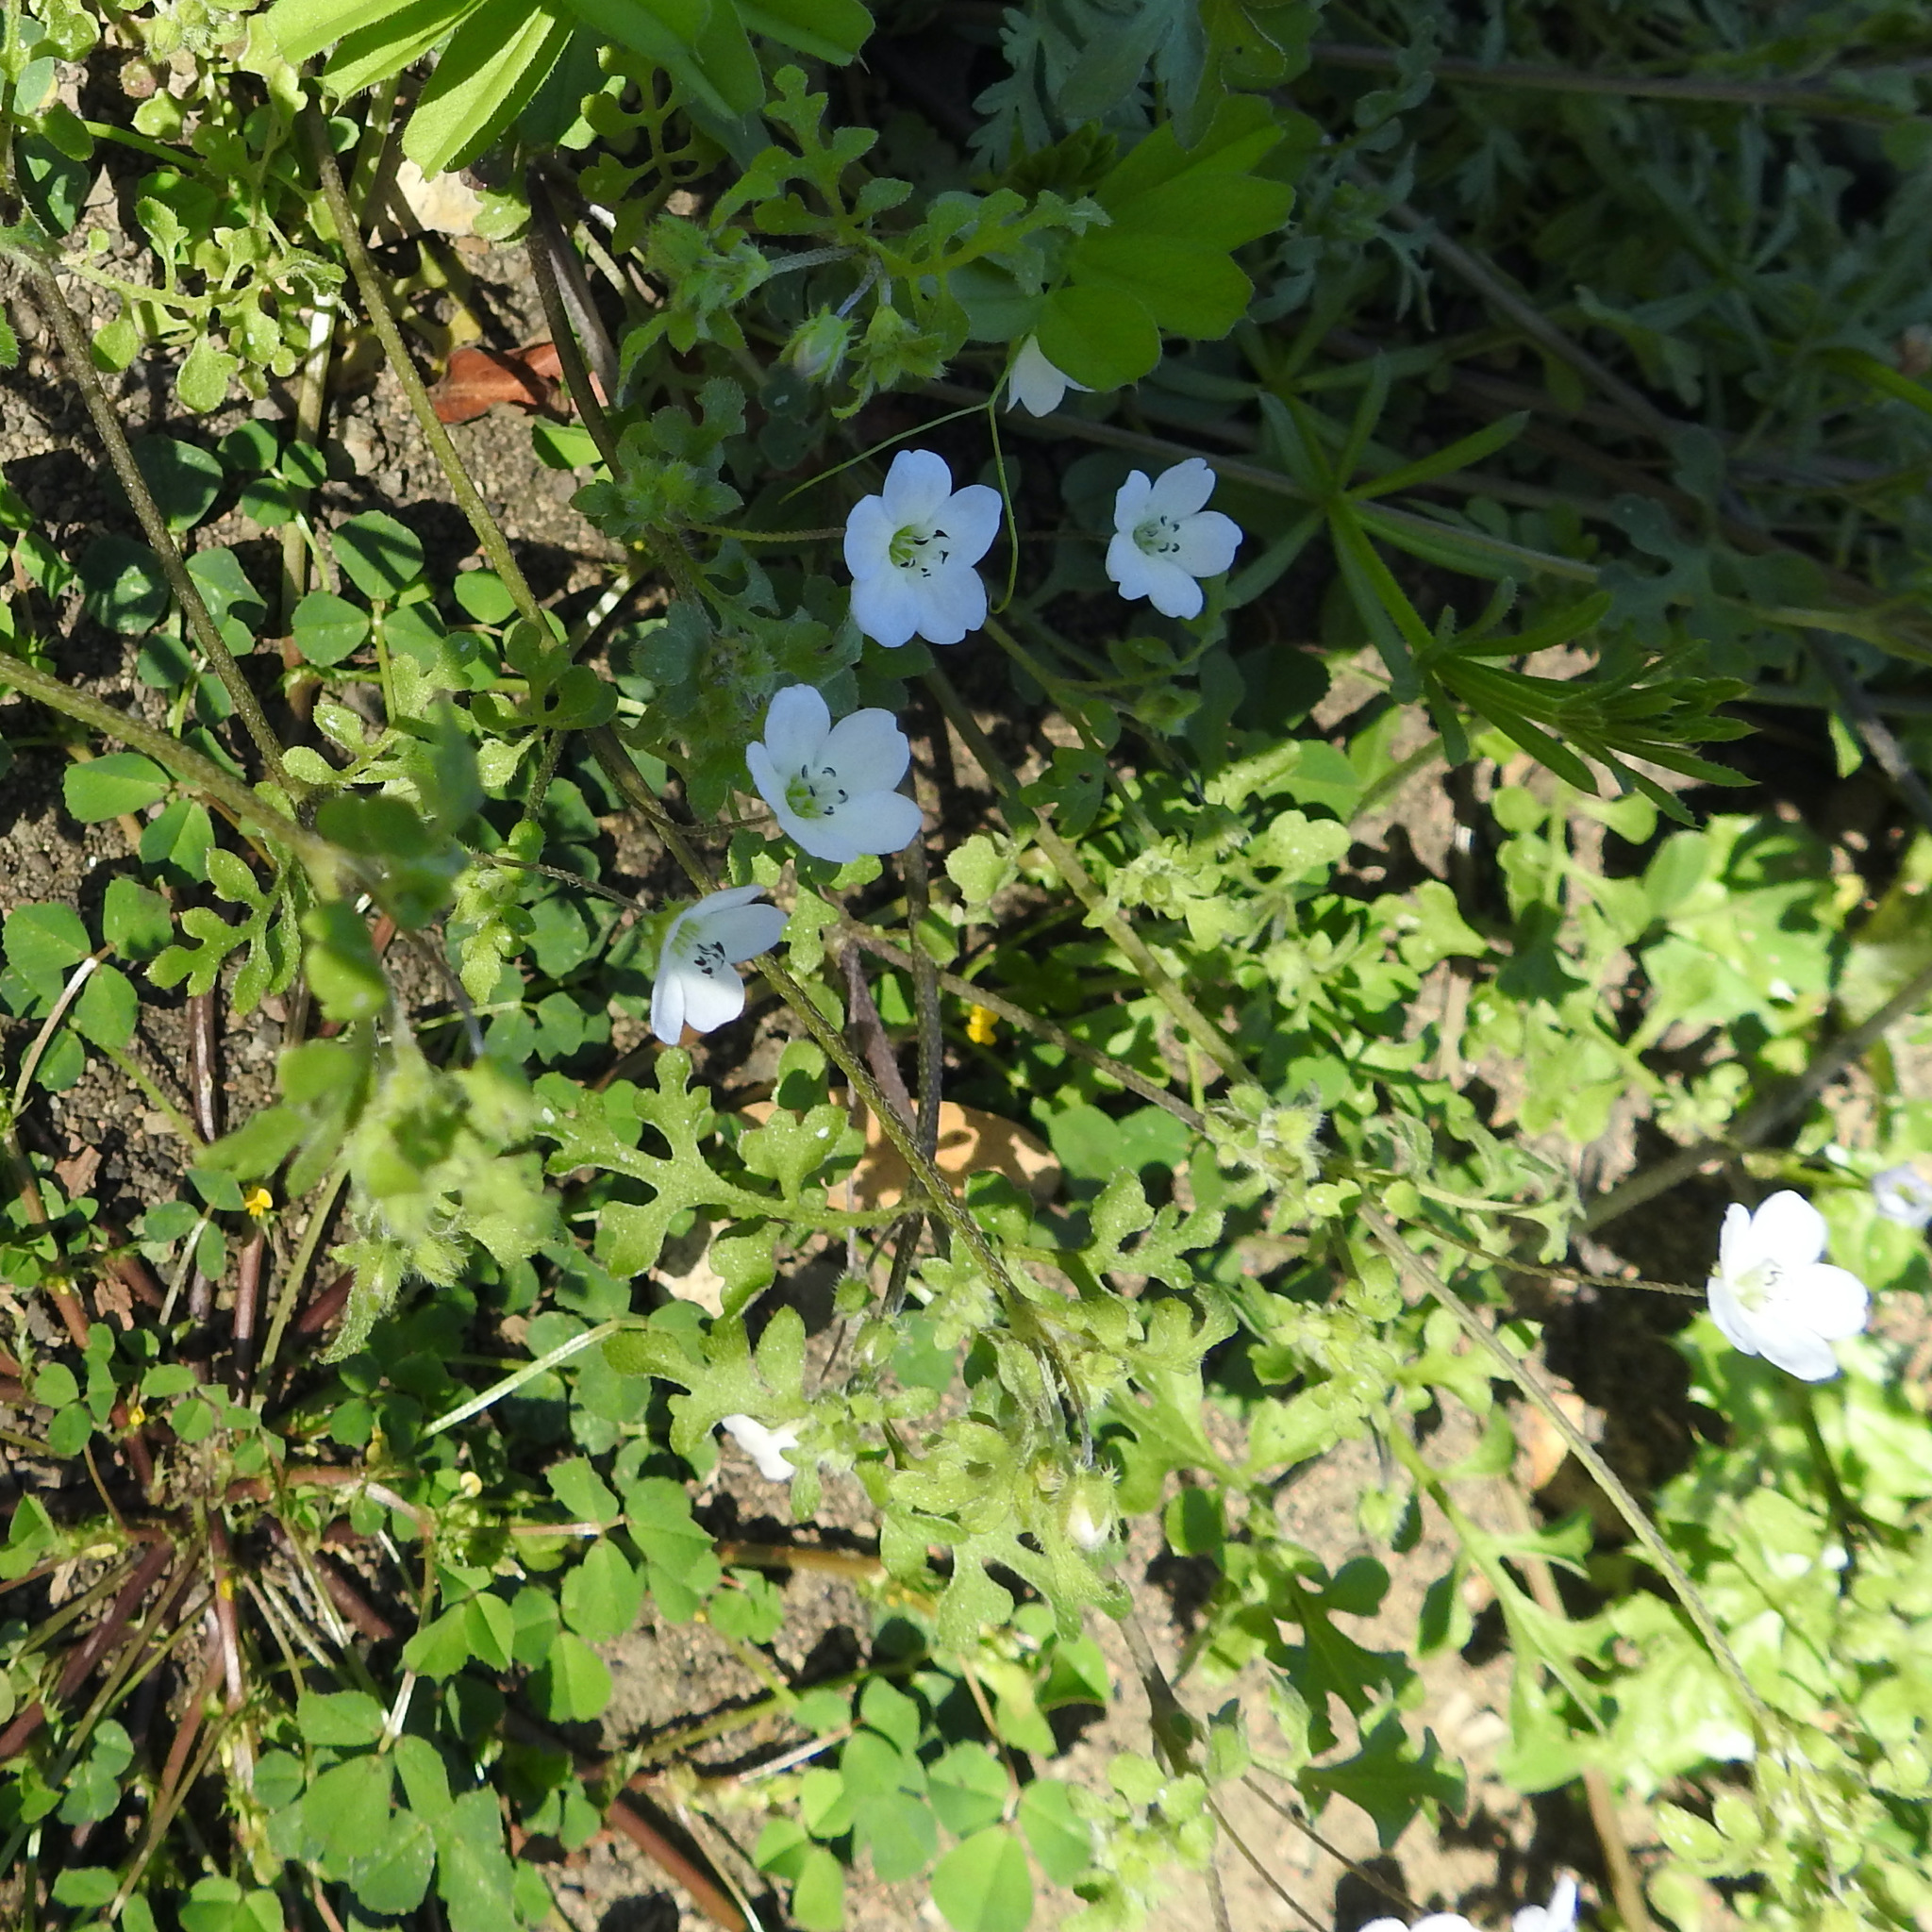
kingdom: Plantae
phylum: Tracheophyta
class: Magnoliopsida
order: Boraginales
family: Hydrophyllaceae
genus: Nemophila
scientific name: Nemophila heterophylla
